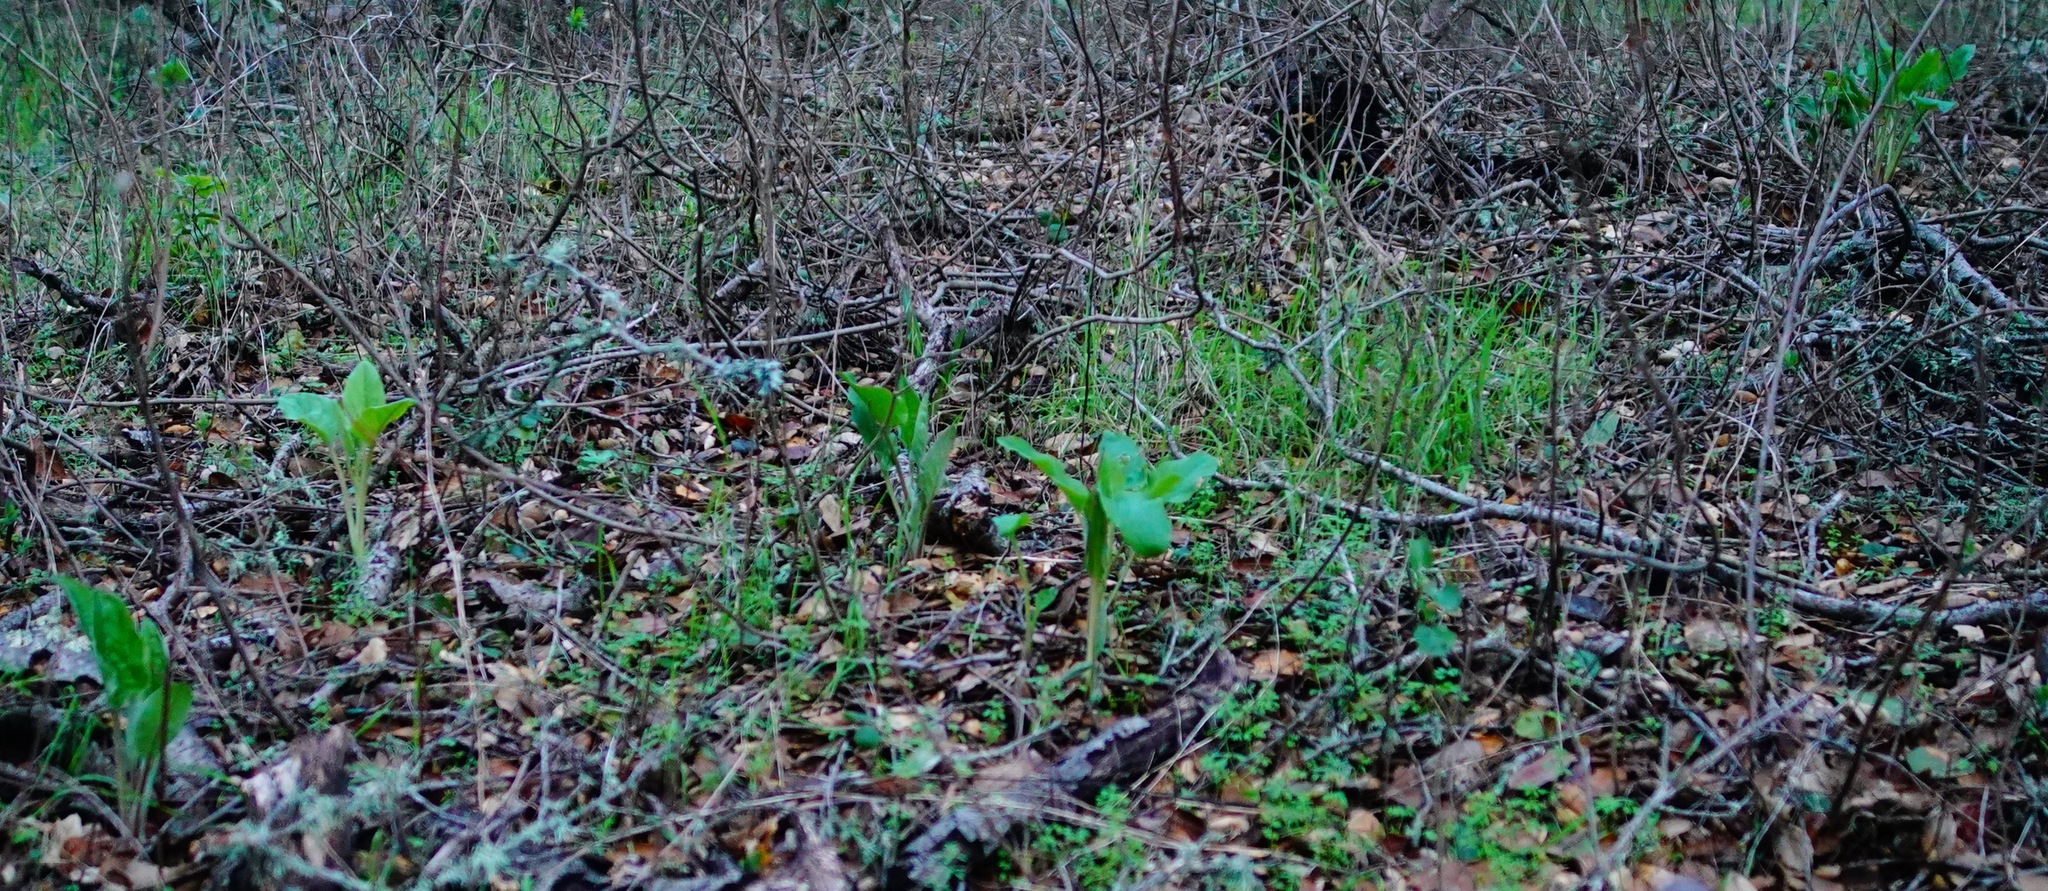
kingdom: Plantae
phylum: Tracheophyta
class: Magnoliopsida
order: Boraginales
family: Boraginaceae
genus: Adelinia
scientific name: Adelinia grande
